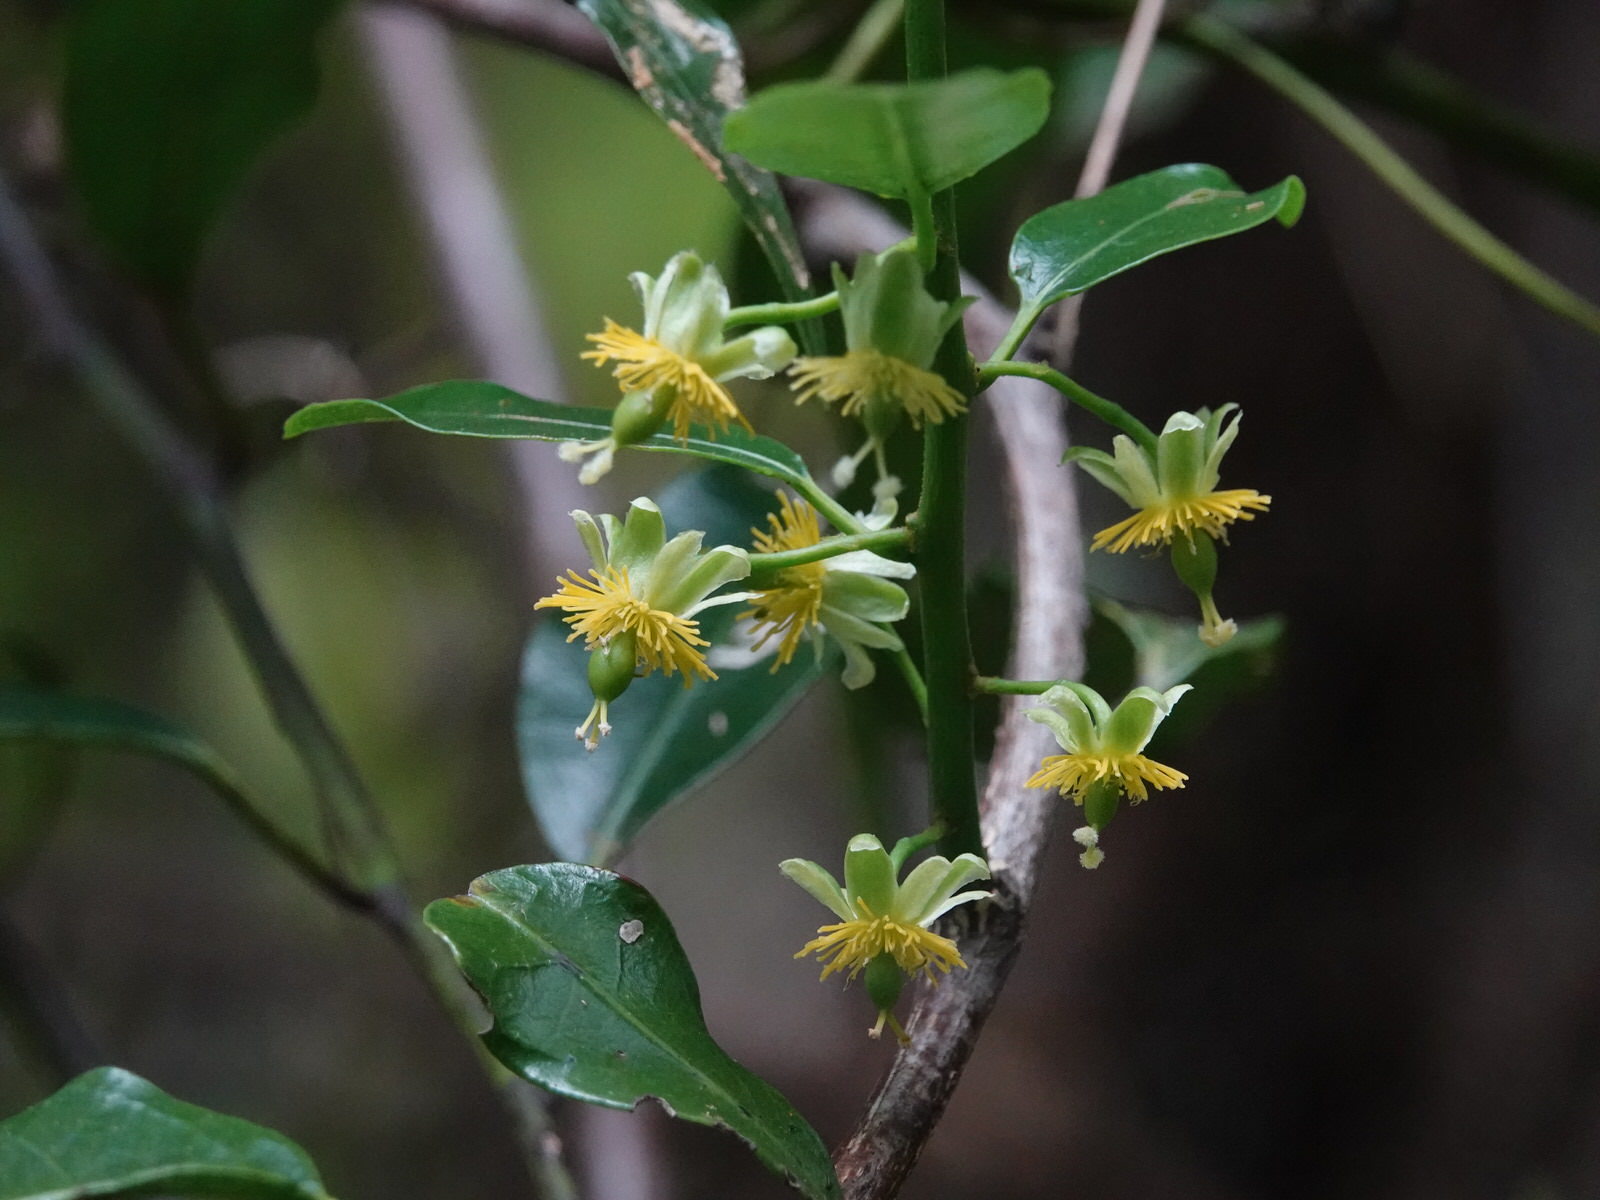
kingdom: Plantae
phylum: Tracheophyta
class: Magnoliopsida
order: Malpighiales
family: Passifloraceae
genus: Passiflora
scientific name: Passiflora tetrandra
